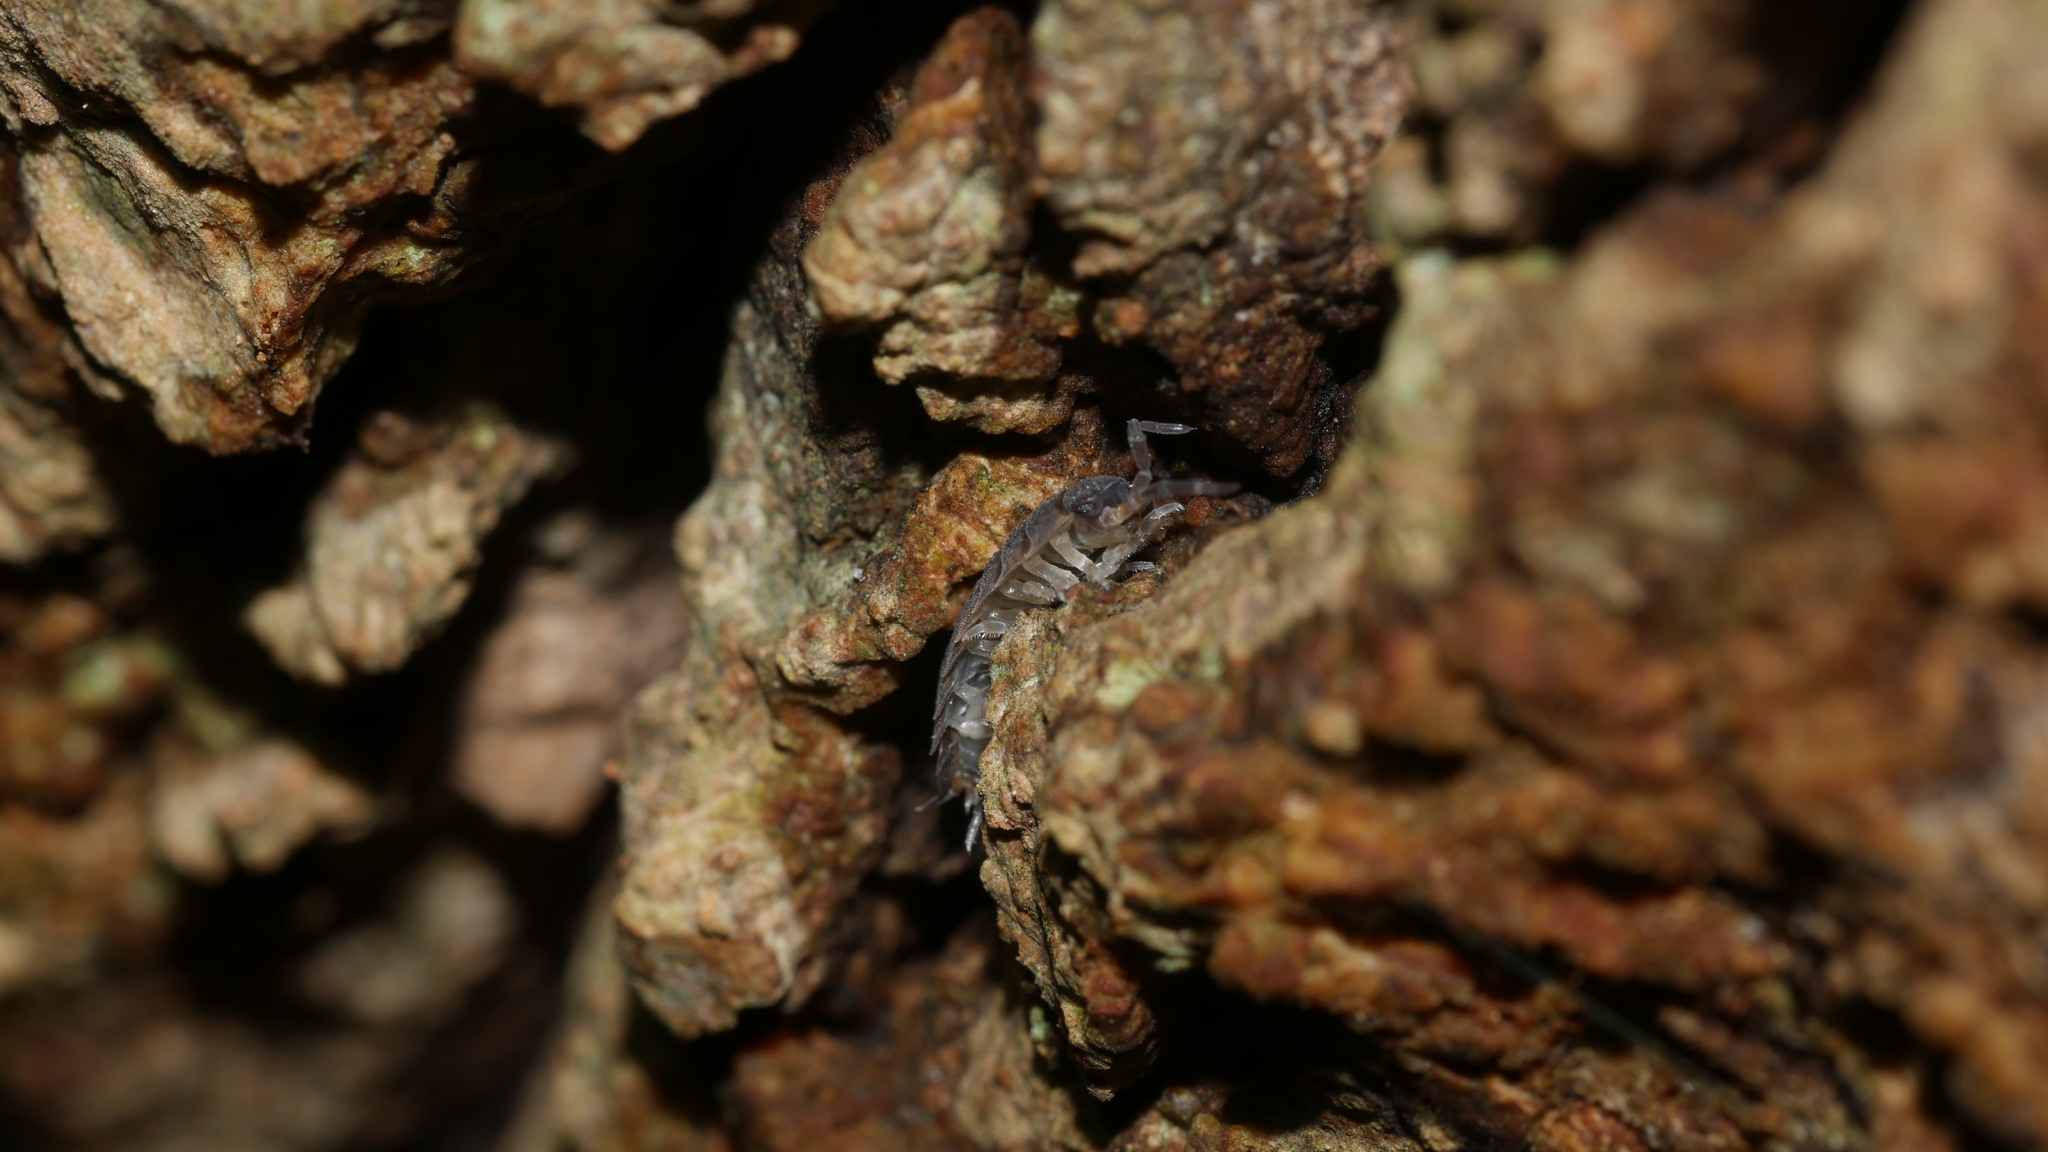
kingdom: Animalia
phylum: Arthropoda
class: Malacostraca
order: Isopoda
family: Porcellionidae
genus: Porcellio
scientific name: Porcellio scaber
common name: Common rough woodlouse
